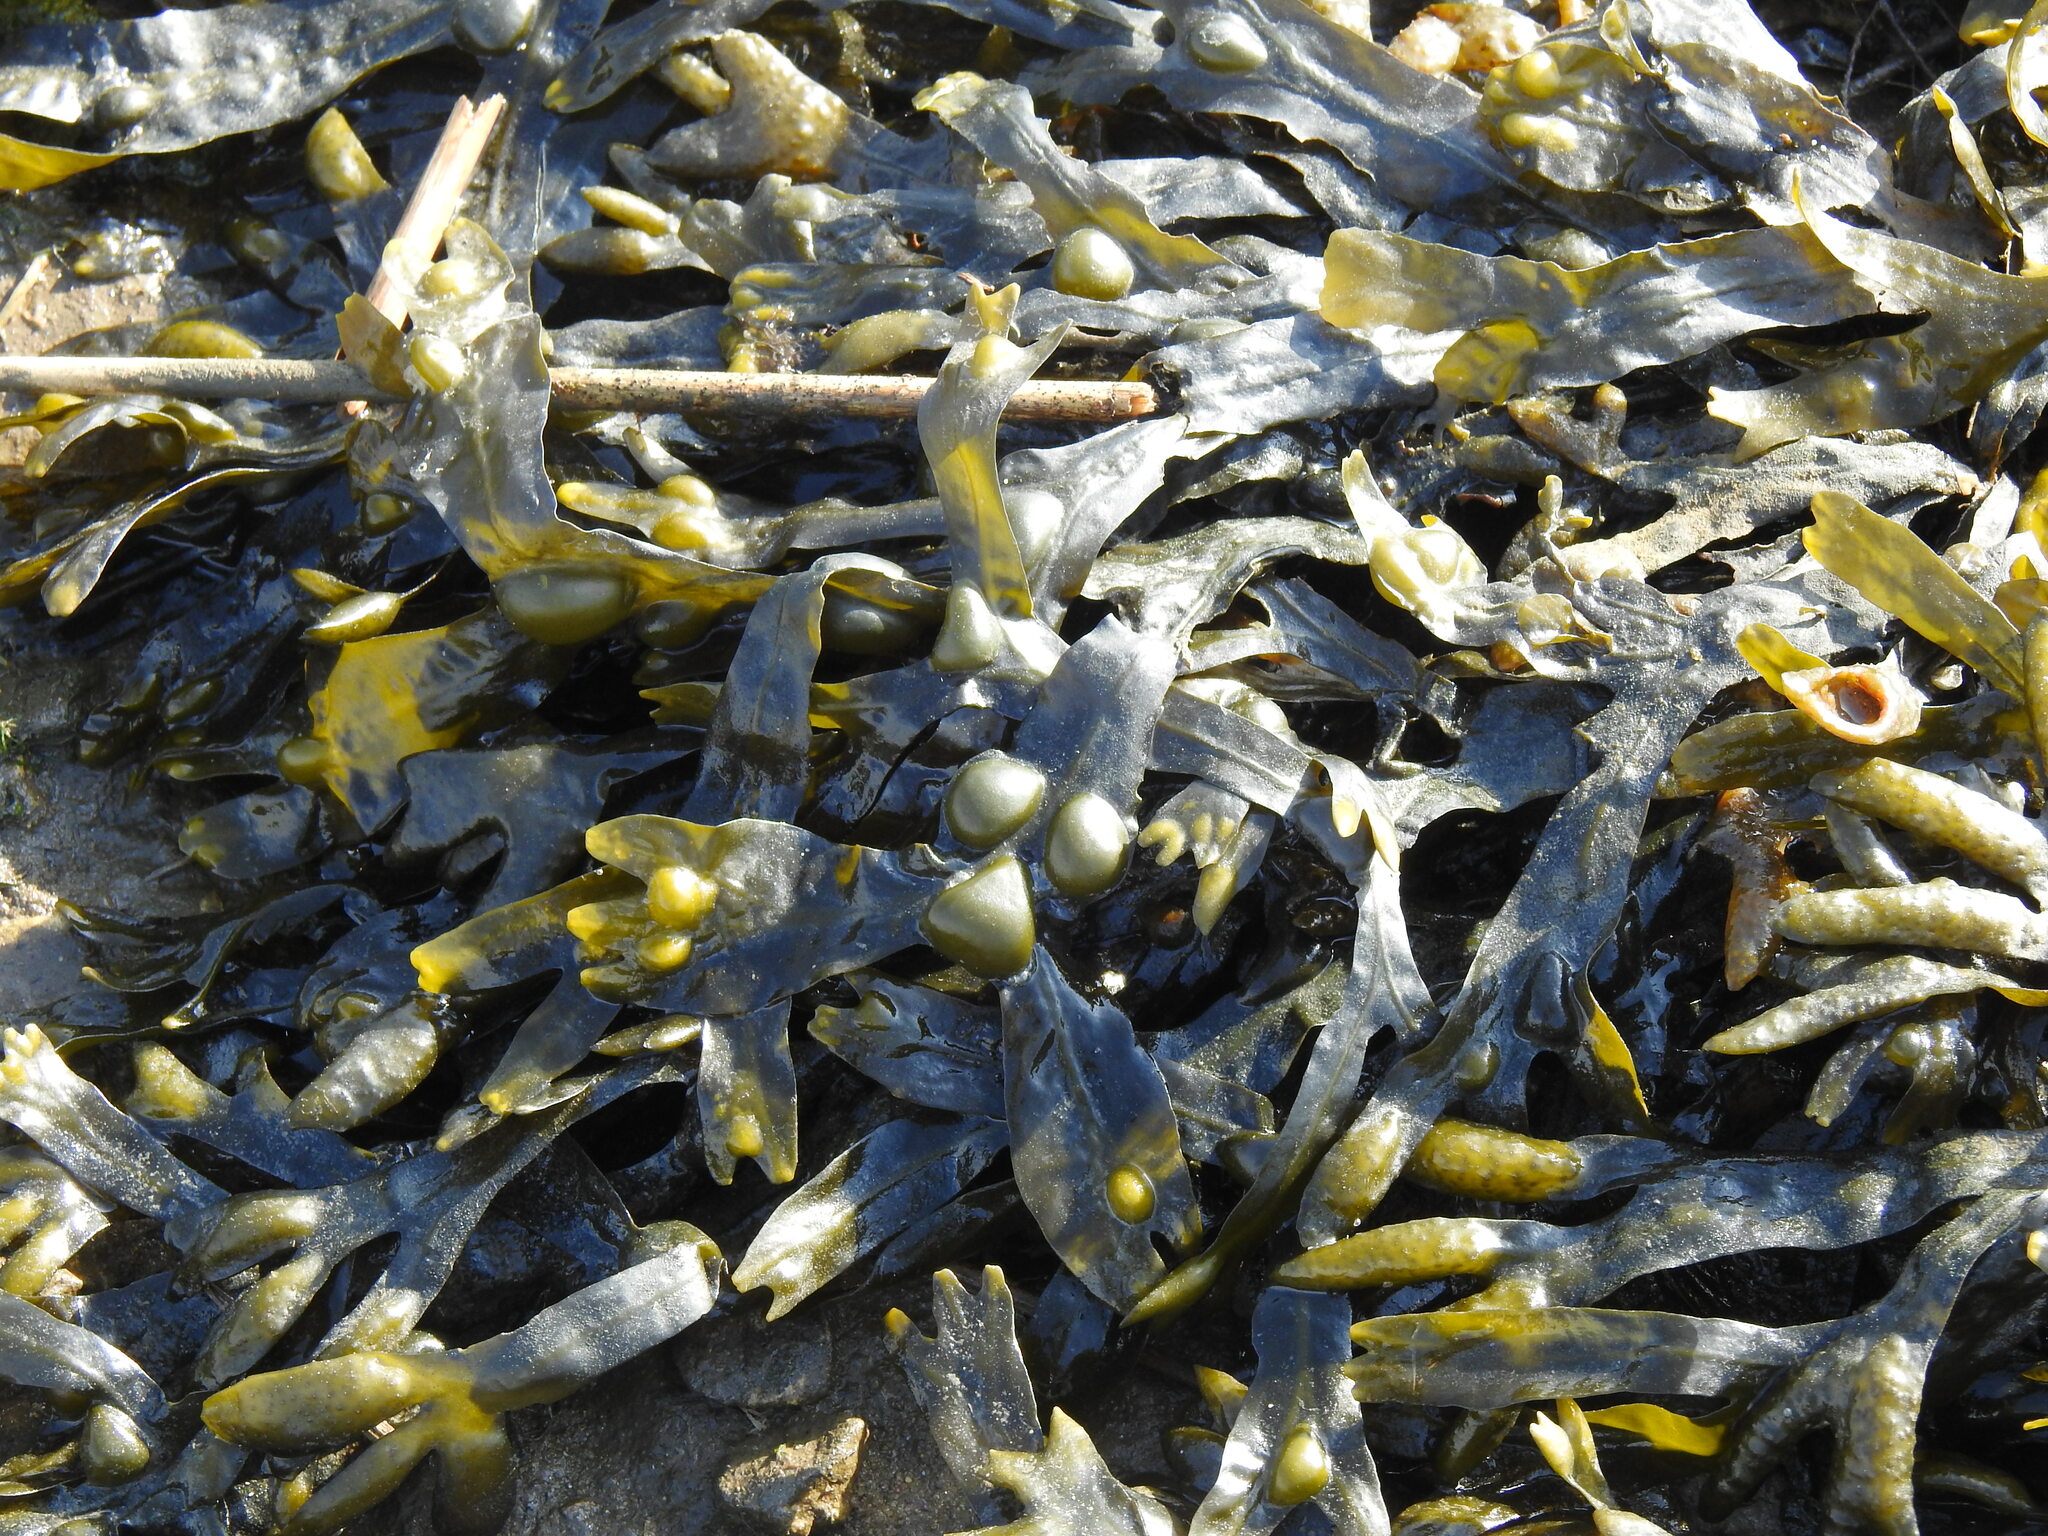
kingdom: Chromista
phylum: Ochrophyta
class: Phaeophyceae
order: Fucales
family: Fucaceae
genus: Fucus
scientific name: Fucus vesiculosus
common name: Bladder wrack
